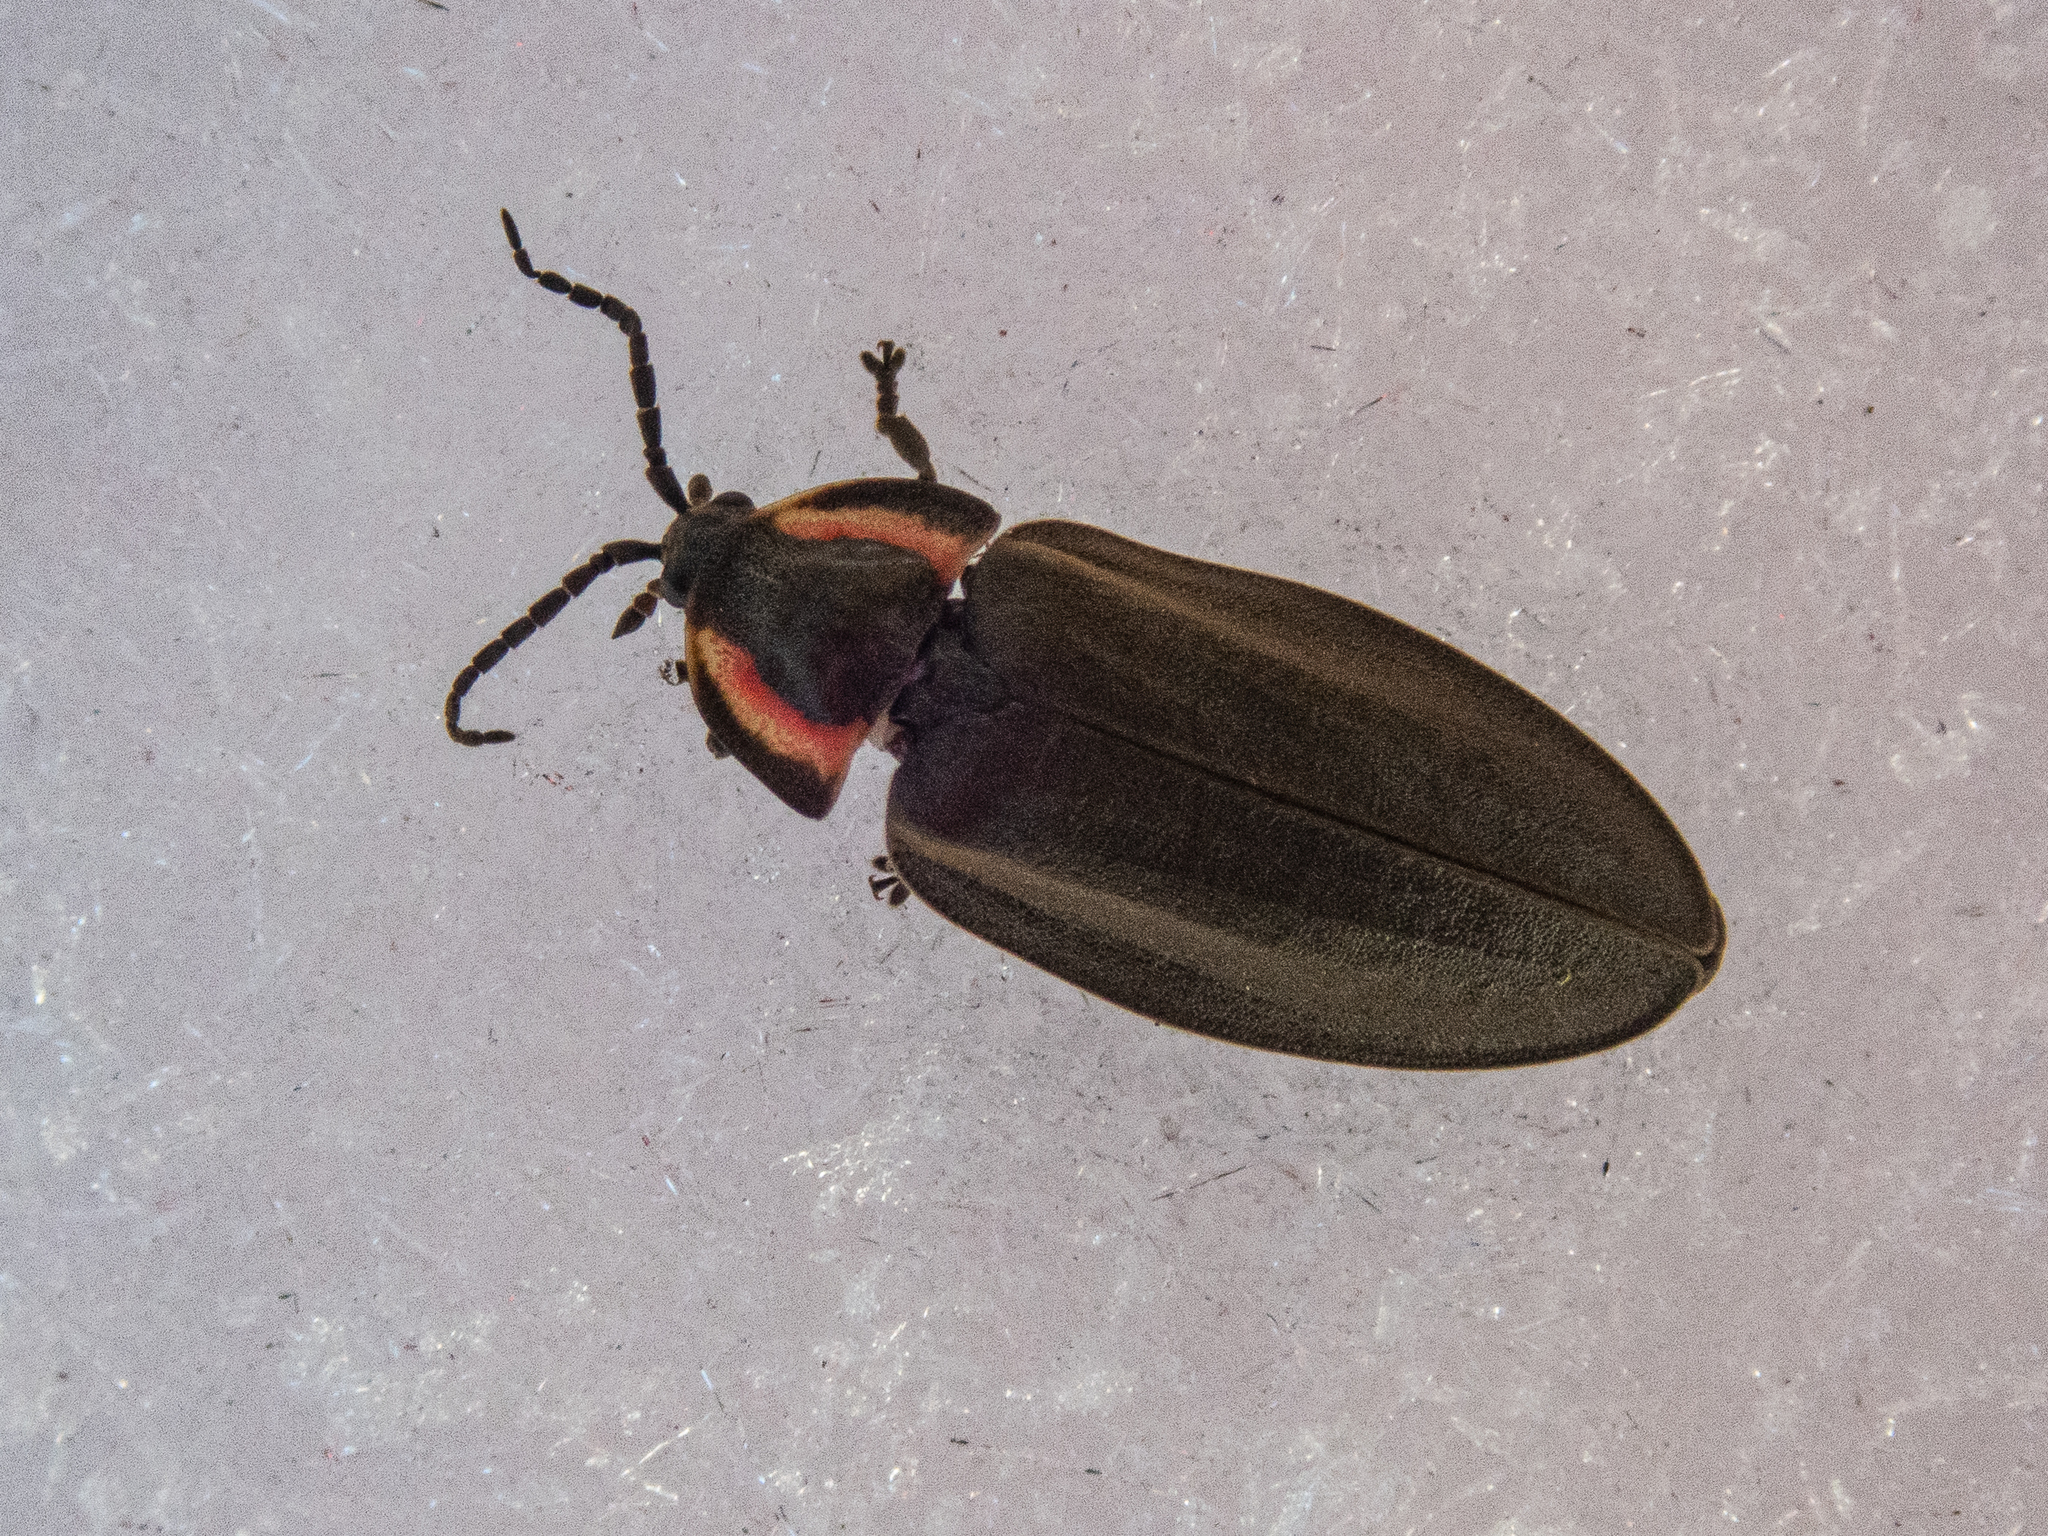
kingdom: Animalia
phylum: Arthropoda
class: Insecta
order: Coleoptera
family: Lampyridae
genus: Photinus
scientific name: Photinus corrusca
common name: Winter firefly
